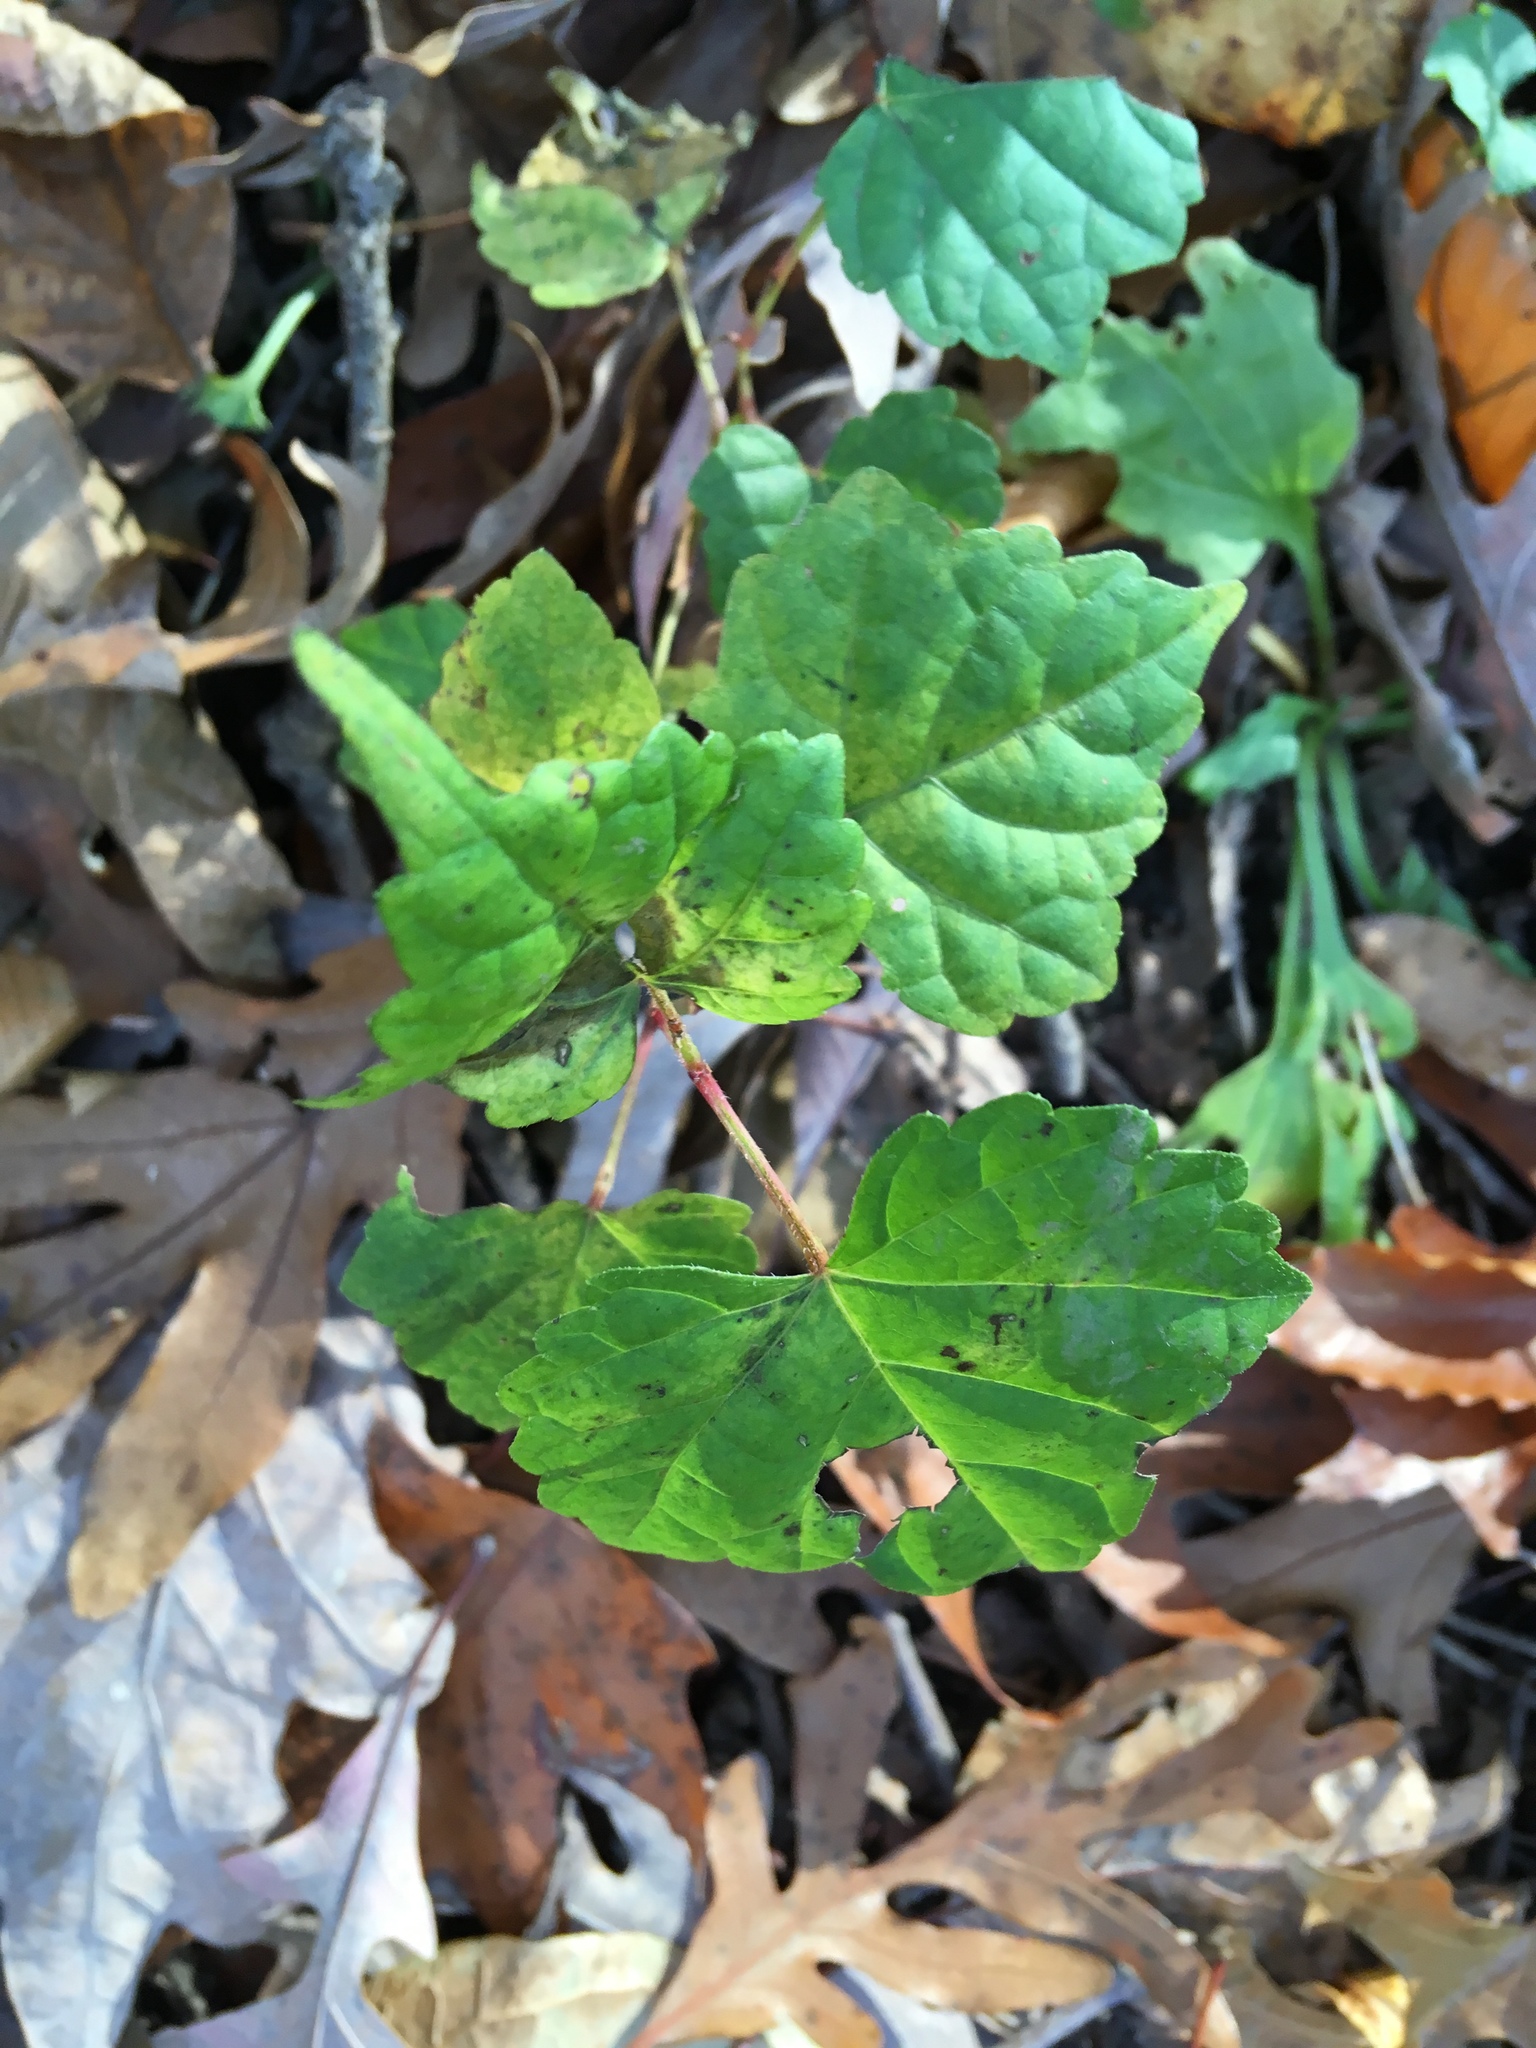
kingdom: Plantae
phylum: Tracheophyta
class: Magnoliopsida
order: Vitales
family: Vitaceae
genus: Ampelopsis
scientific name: Ampelopsis glandulosa
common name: Amur peppervine
